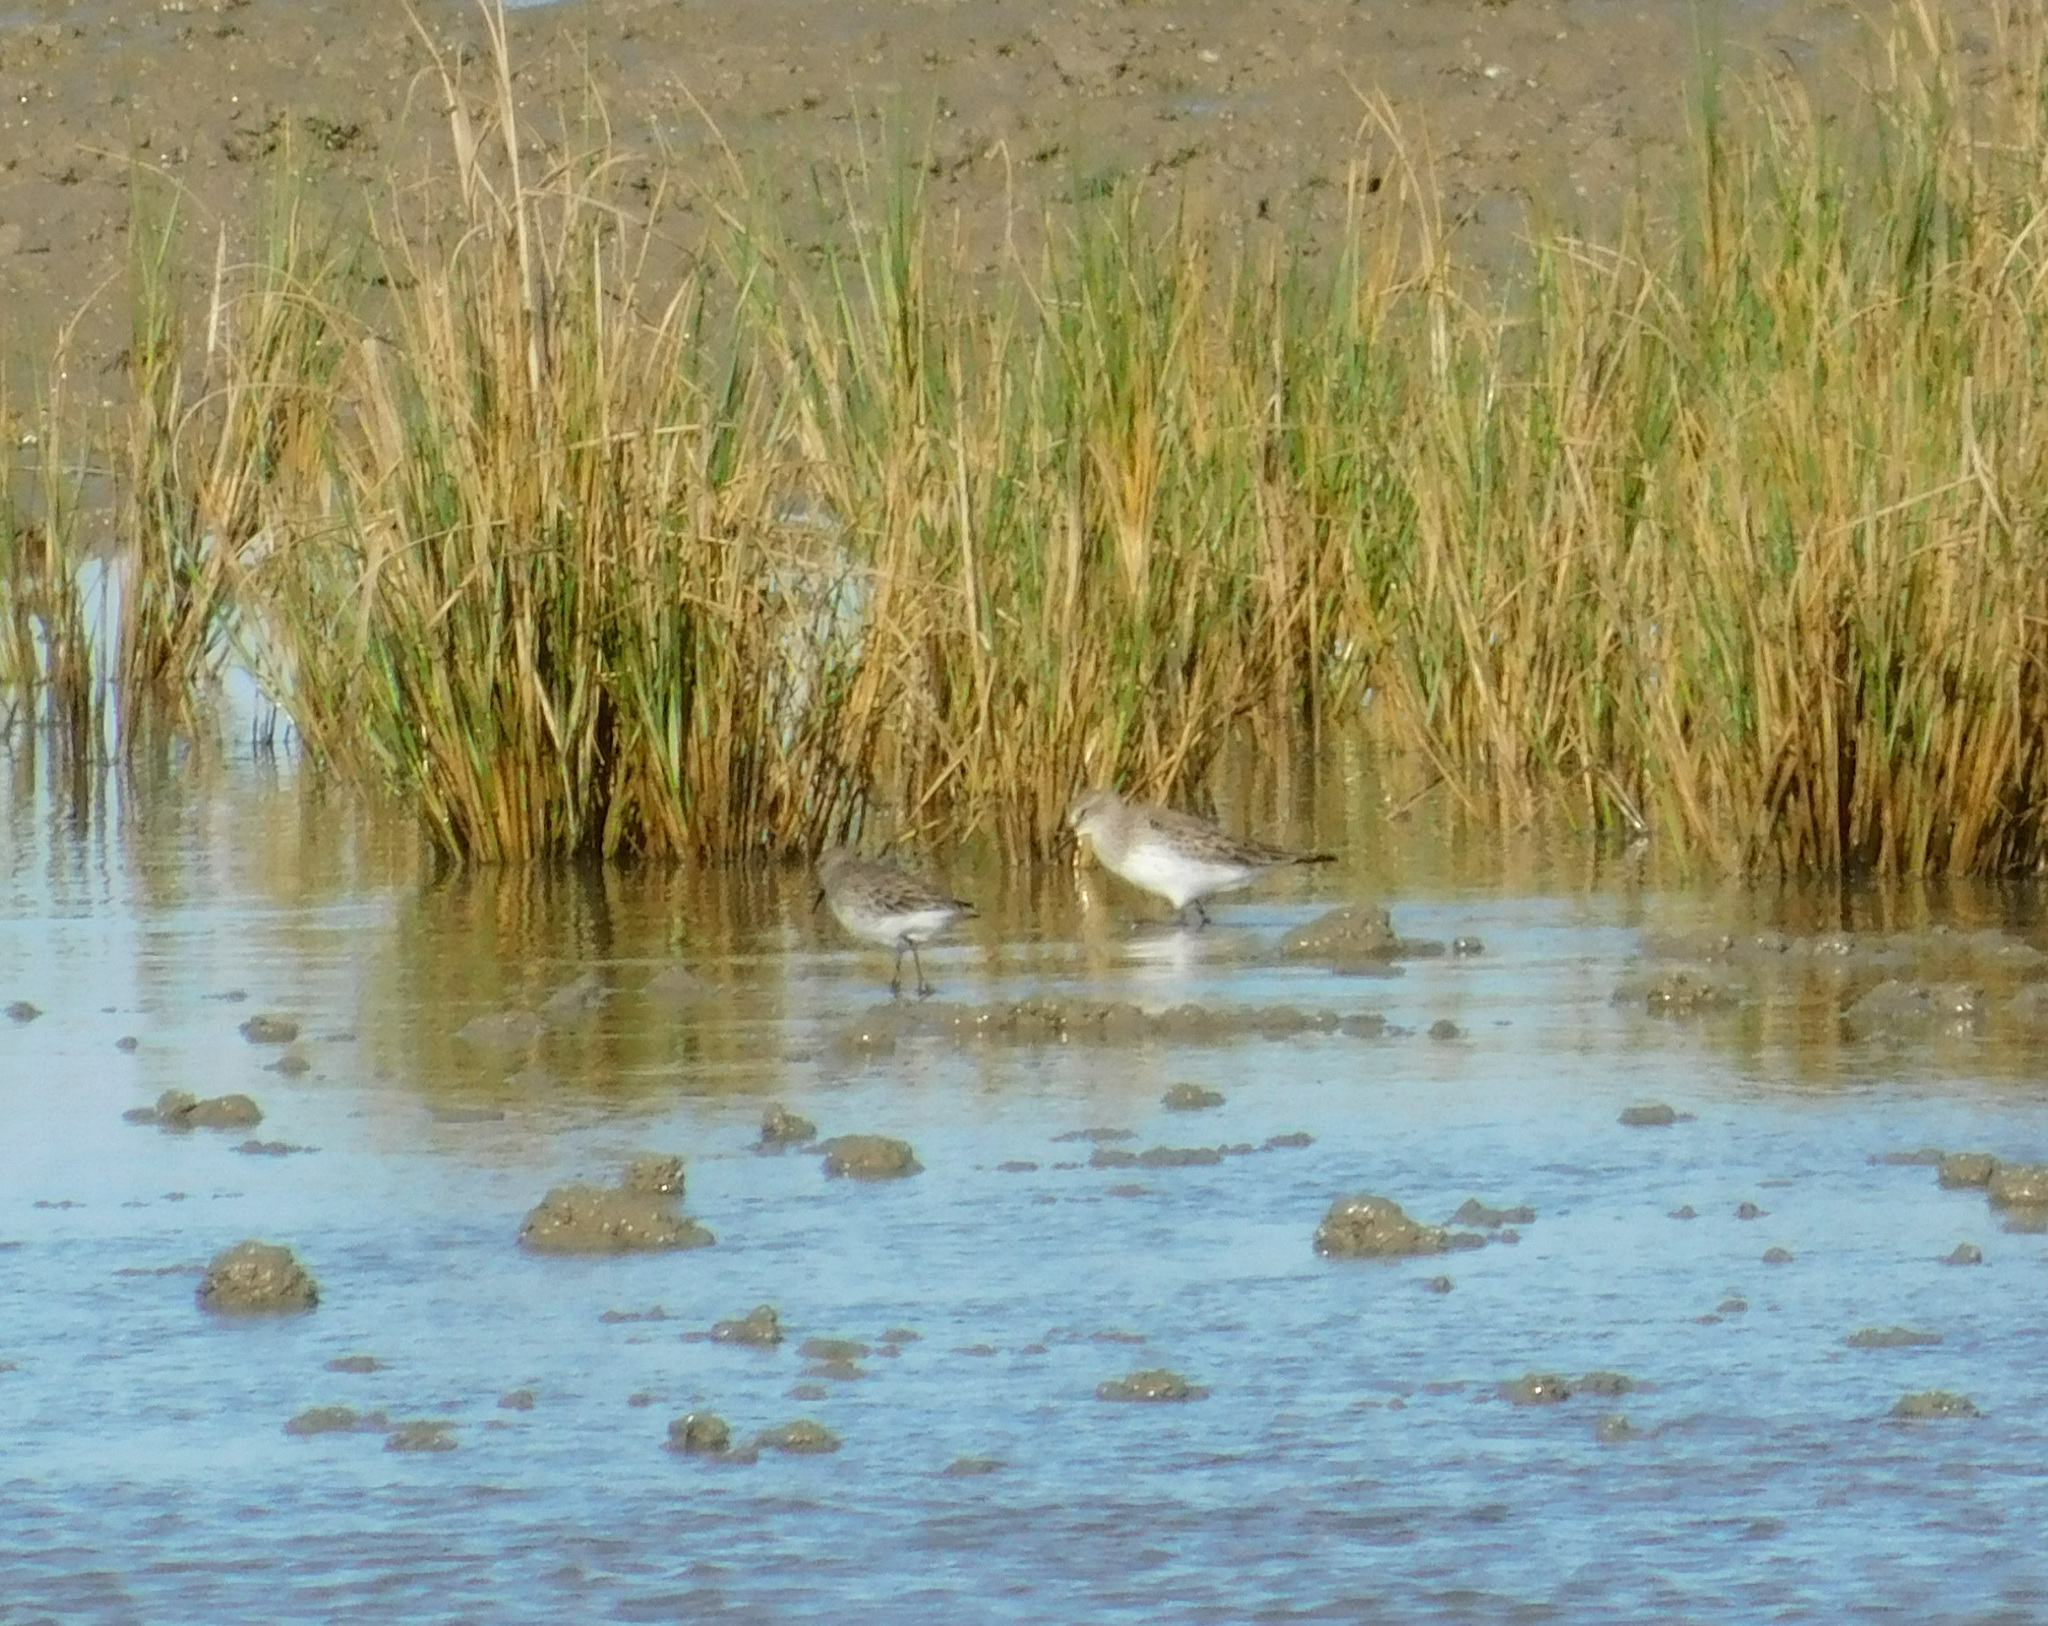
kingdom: Animalia
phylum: Chordata
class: Aves
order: Charadriiformes
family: Scolopacidae
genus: Calidris
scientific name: Calidris fuscicollis
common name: White-rumped sandpiper
